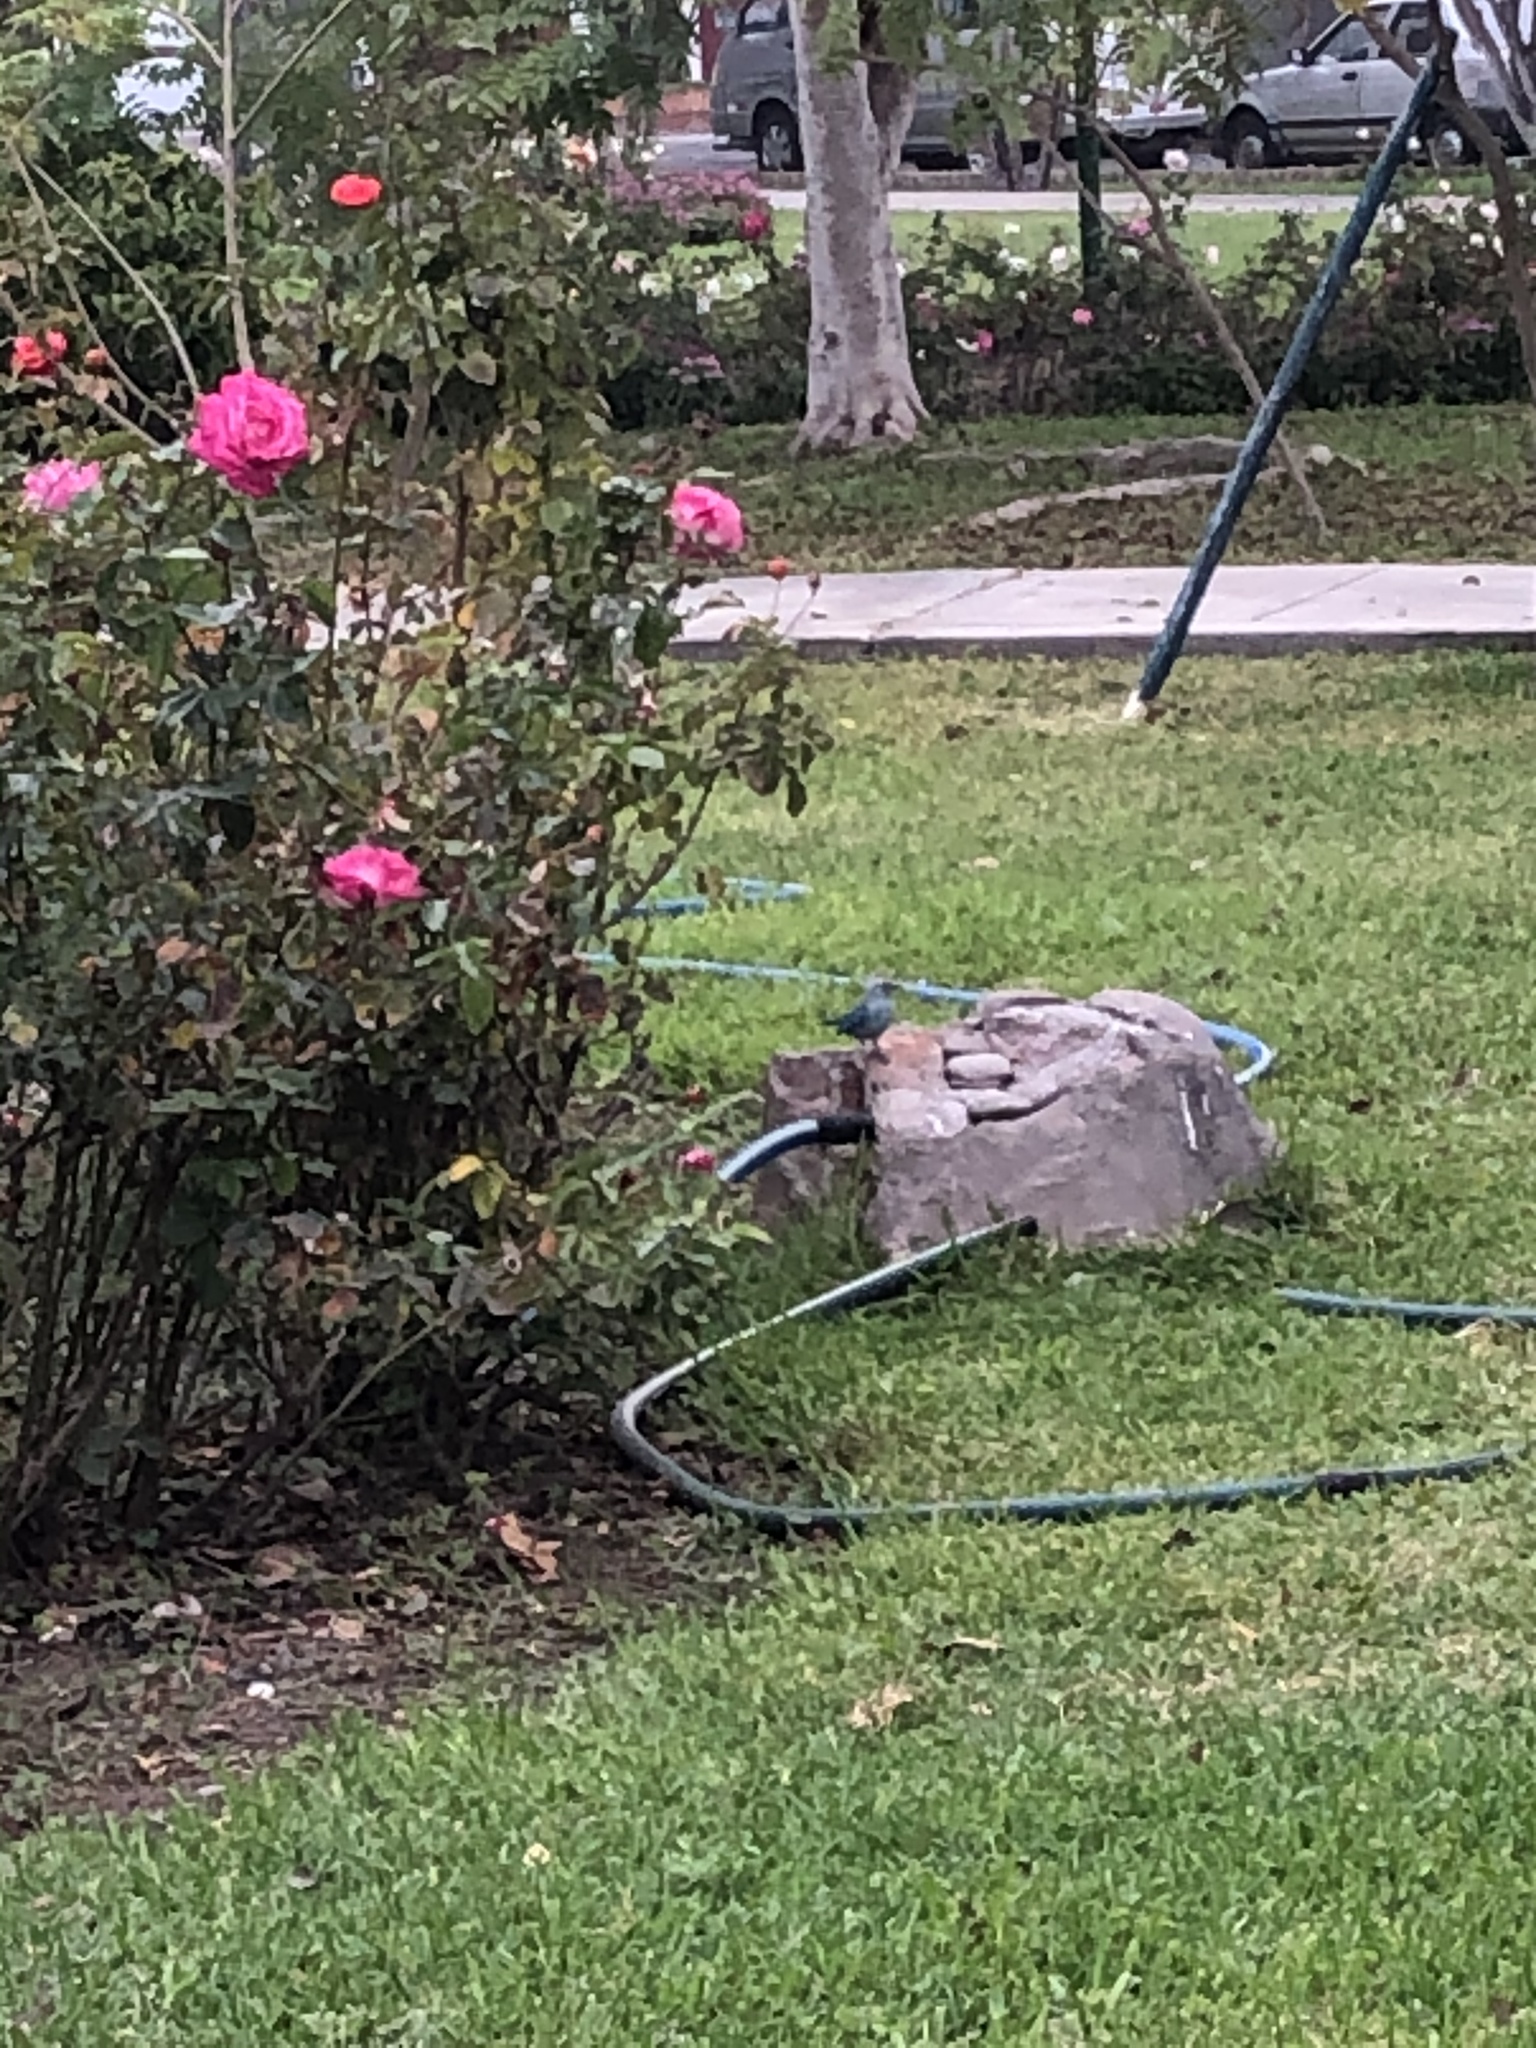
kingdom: Animalia
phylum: Chordata
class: Aves
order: Passeriformes
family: Thraupidae
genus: Thraupis
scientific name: Thraupis episcopus
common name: Blue-grey tanager
